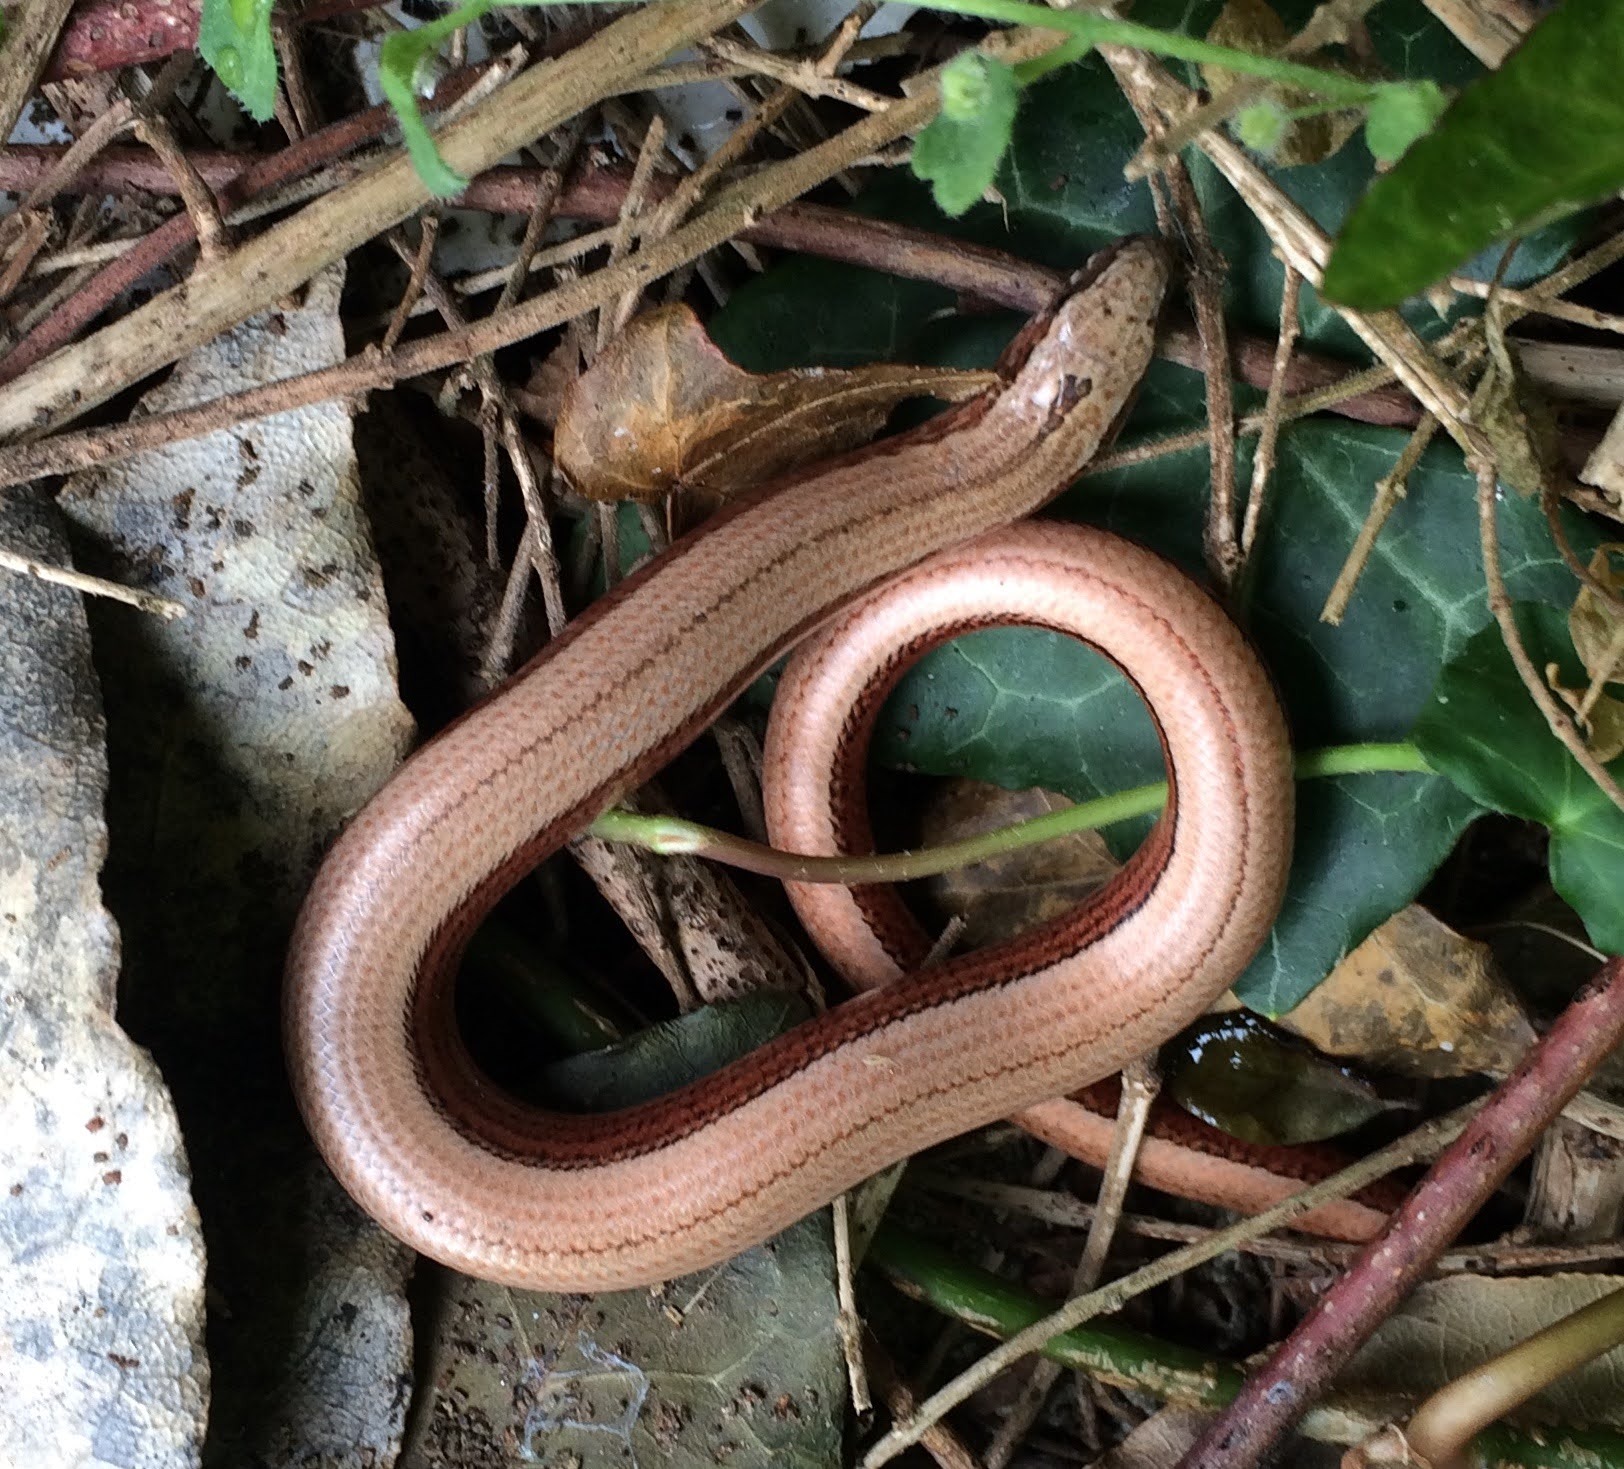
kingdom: Animalia
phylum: Chordata
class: Squamata
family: Anguidae
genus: Anguis
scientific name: Anguis fragilis
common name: Slow worm
